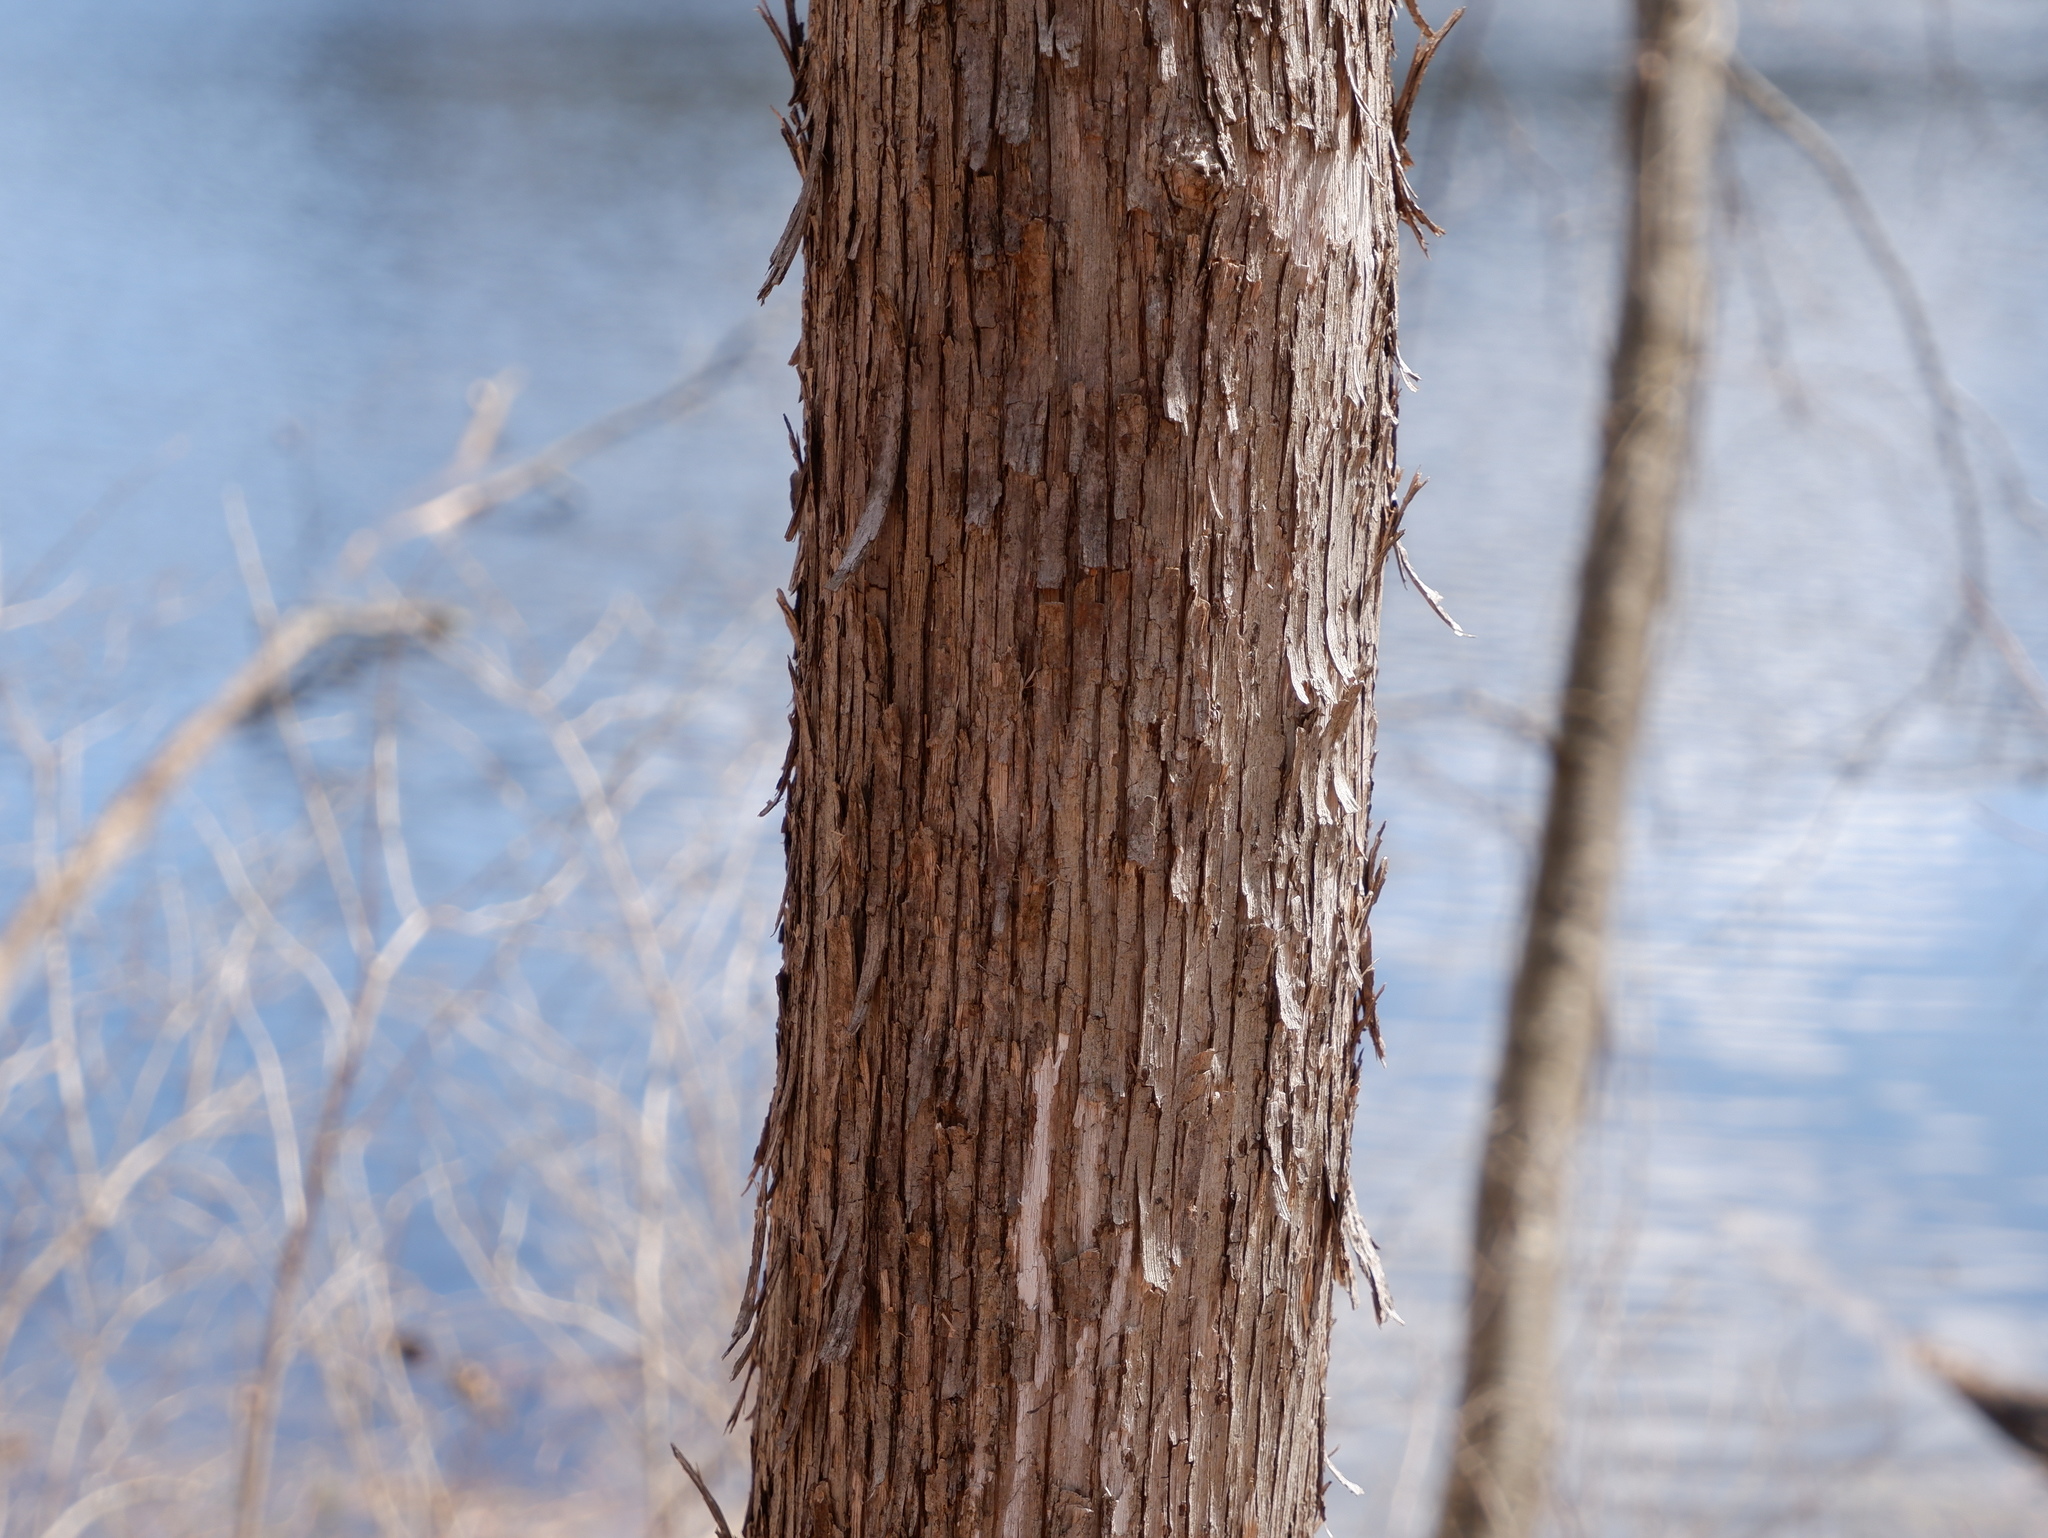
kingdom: Plantae
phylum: Tracheophyta
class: Magnoliopsida
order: Fagales
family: Betulaceae
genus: Ostrya
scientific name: Ostrya virginiana
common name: Ironwood
